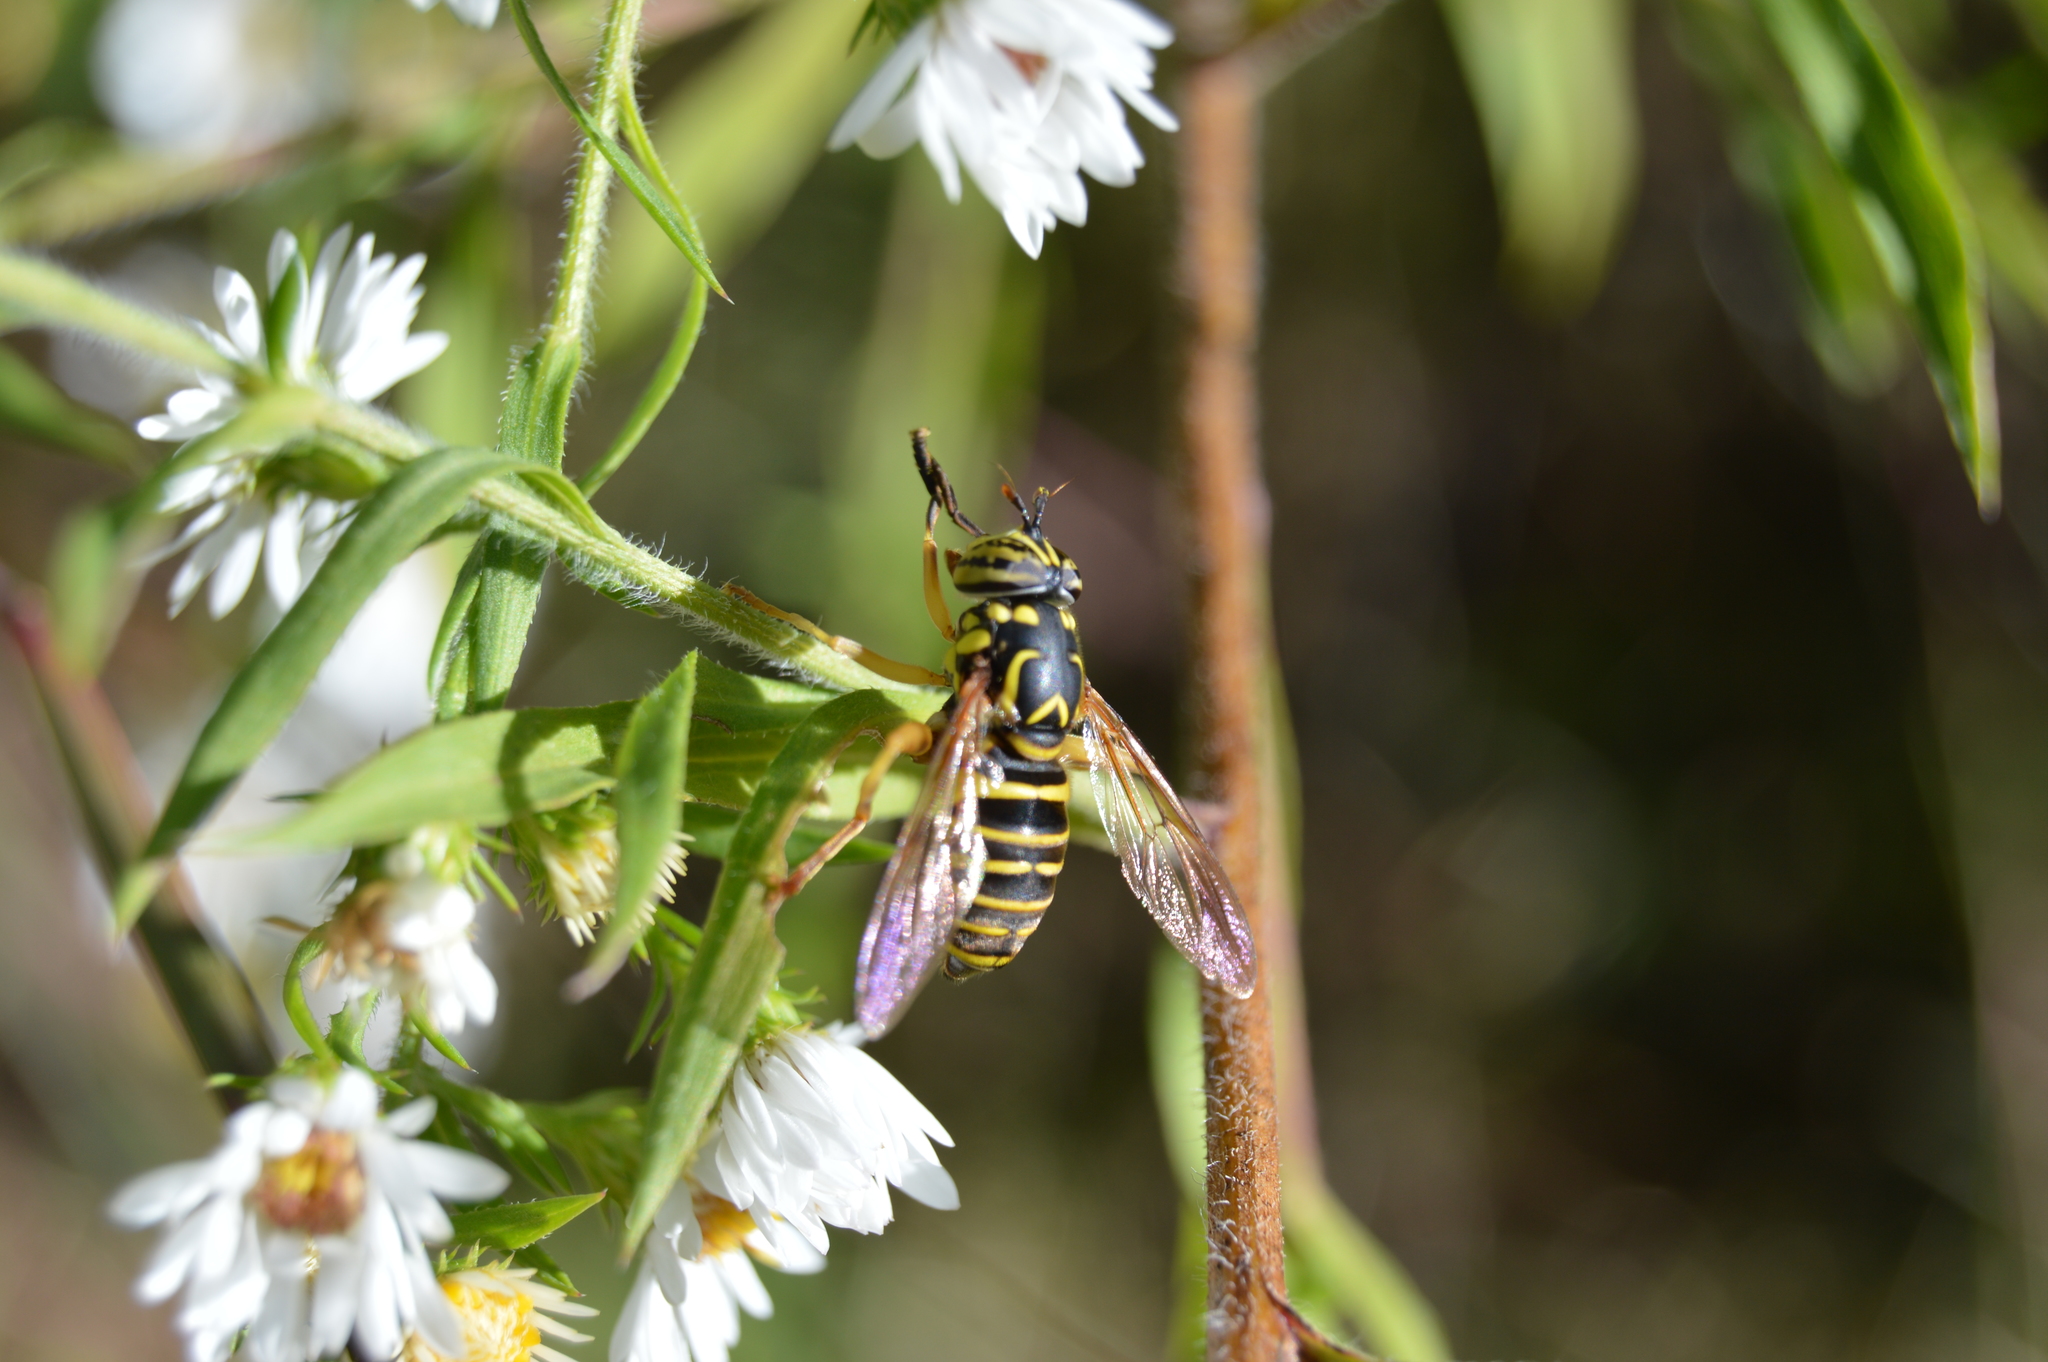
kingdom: Animalia
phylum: Arthropoda
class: Insecta
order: Diptera
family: Syrphidae
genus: Spilomyia
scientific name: Spilomyia longicornis
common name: Eastern hornet fly
